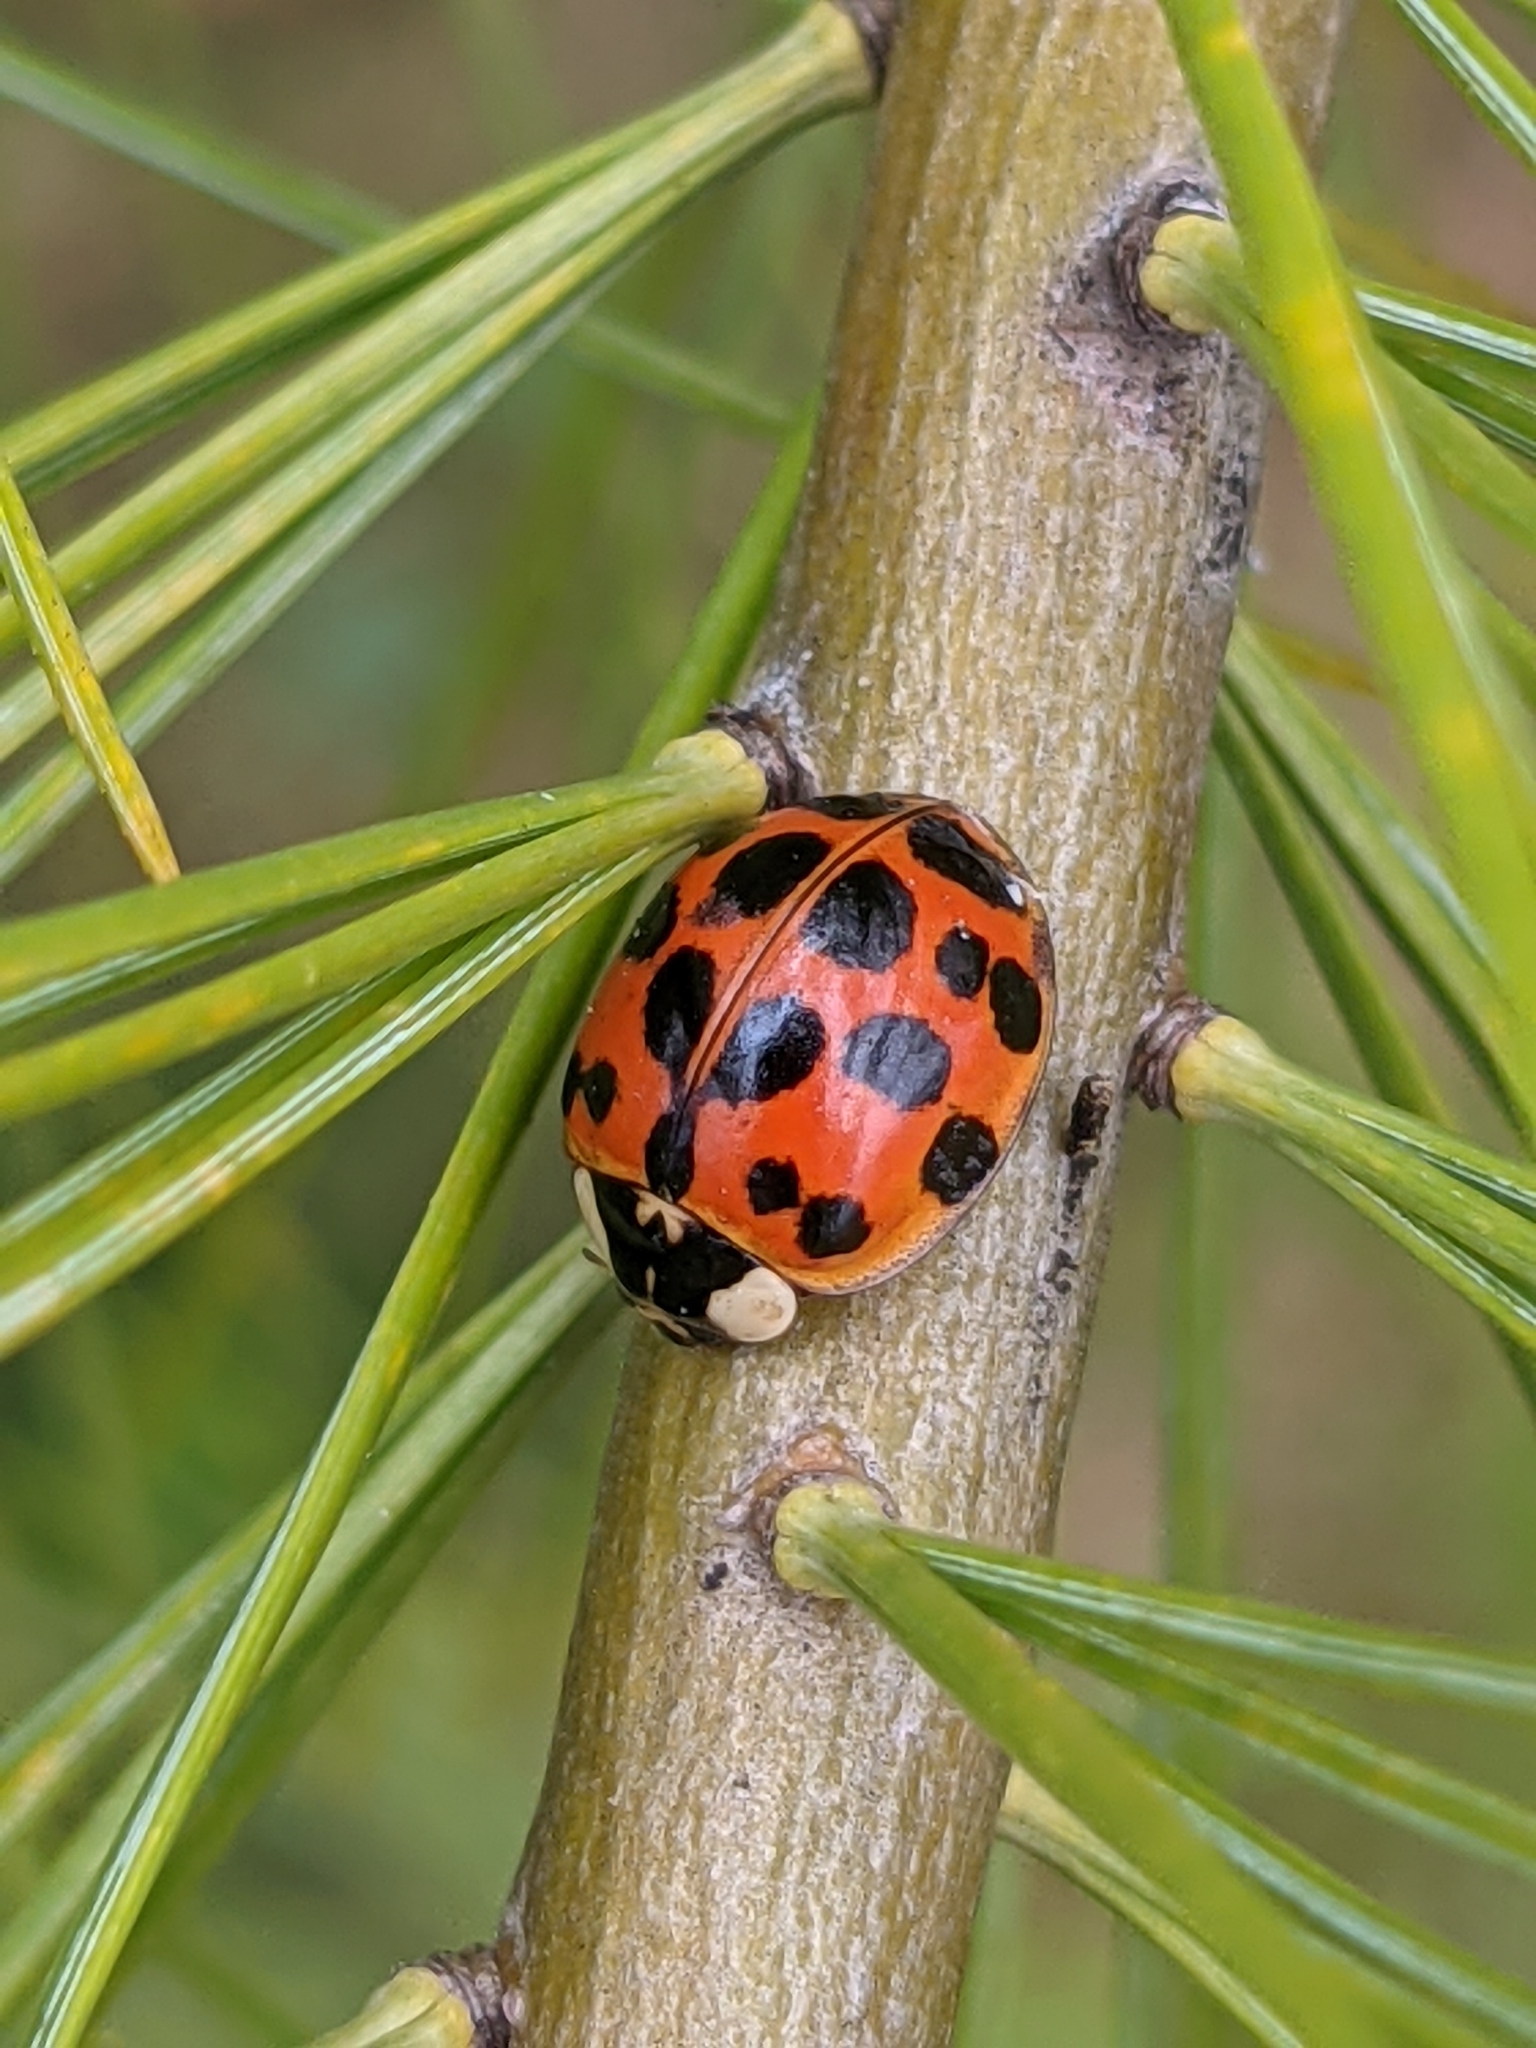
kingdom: Animalia
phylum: Arthropoda
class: Insecta
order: Coleoptera
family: Coccinellidae
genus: Harmonia
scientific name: Harmonia axyridis
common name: Harlequin ladybird
